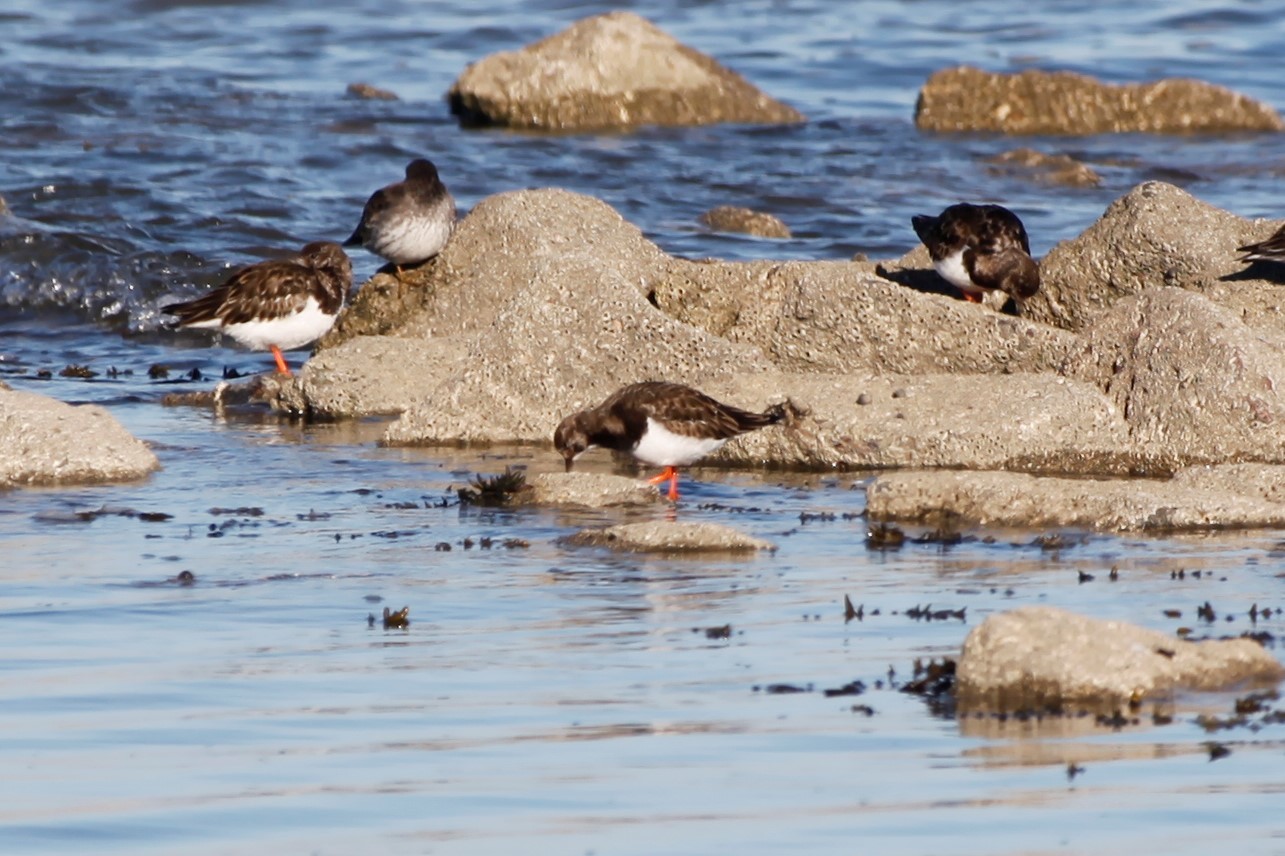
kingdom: Animalia
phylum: Chordata
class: Aves
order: Charadriiformes
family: Scolopacidae
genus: Arenaria
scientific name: Arenaria interpres
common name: Ruddy turnstone
